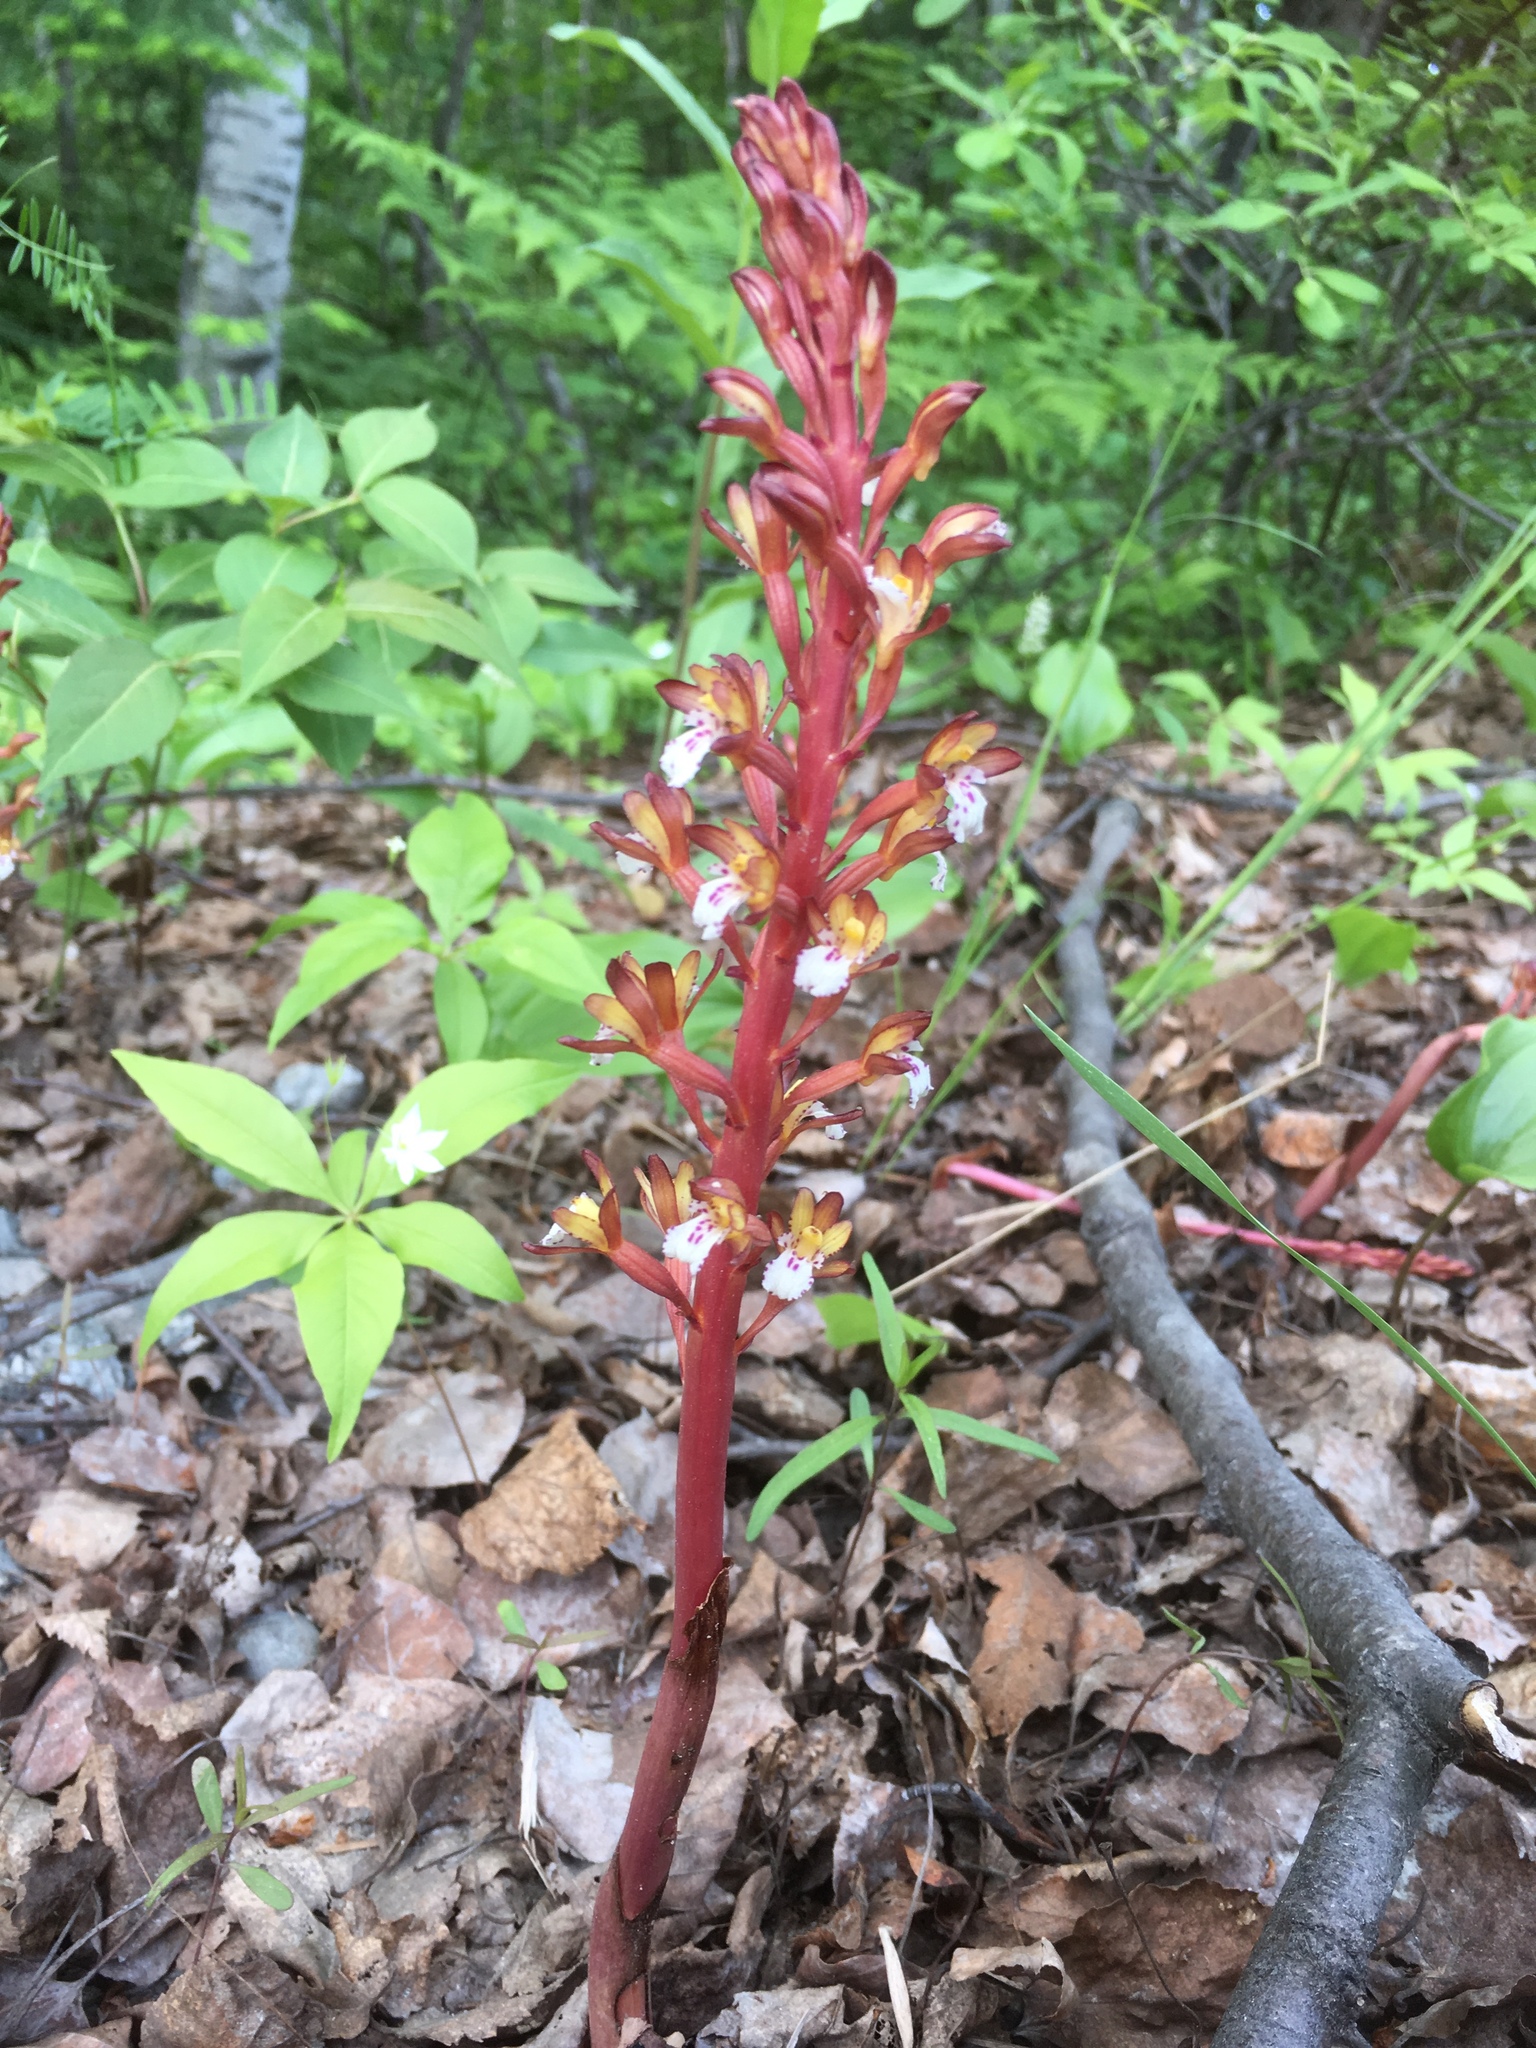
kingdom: Plantae
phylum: Tracheophyta
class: Liliopsida
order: Asparagales
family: Orchidaceae
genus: Corallorhiza
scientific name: Corallorhiza maculata
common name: Spotted coralroot
